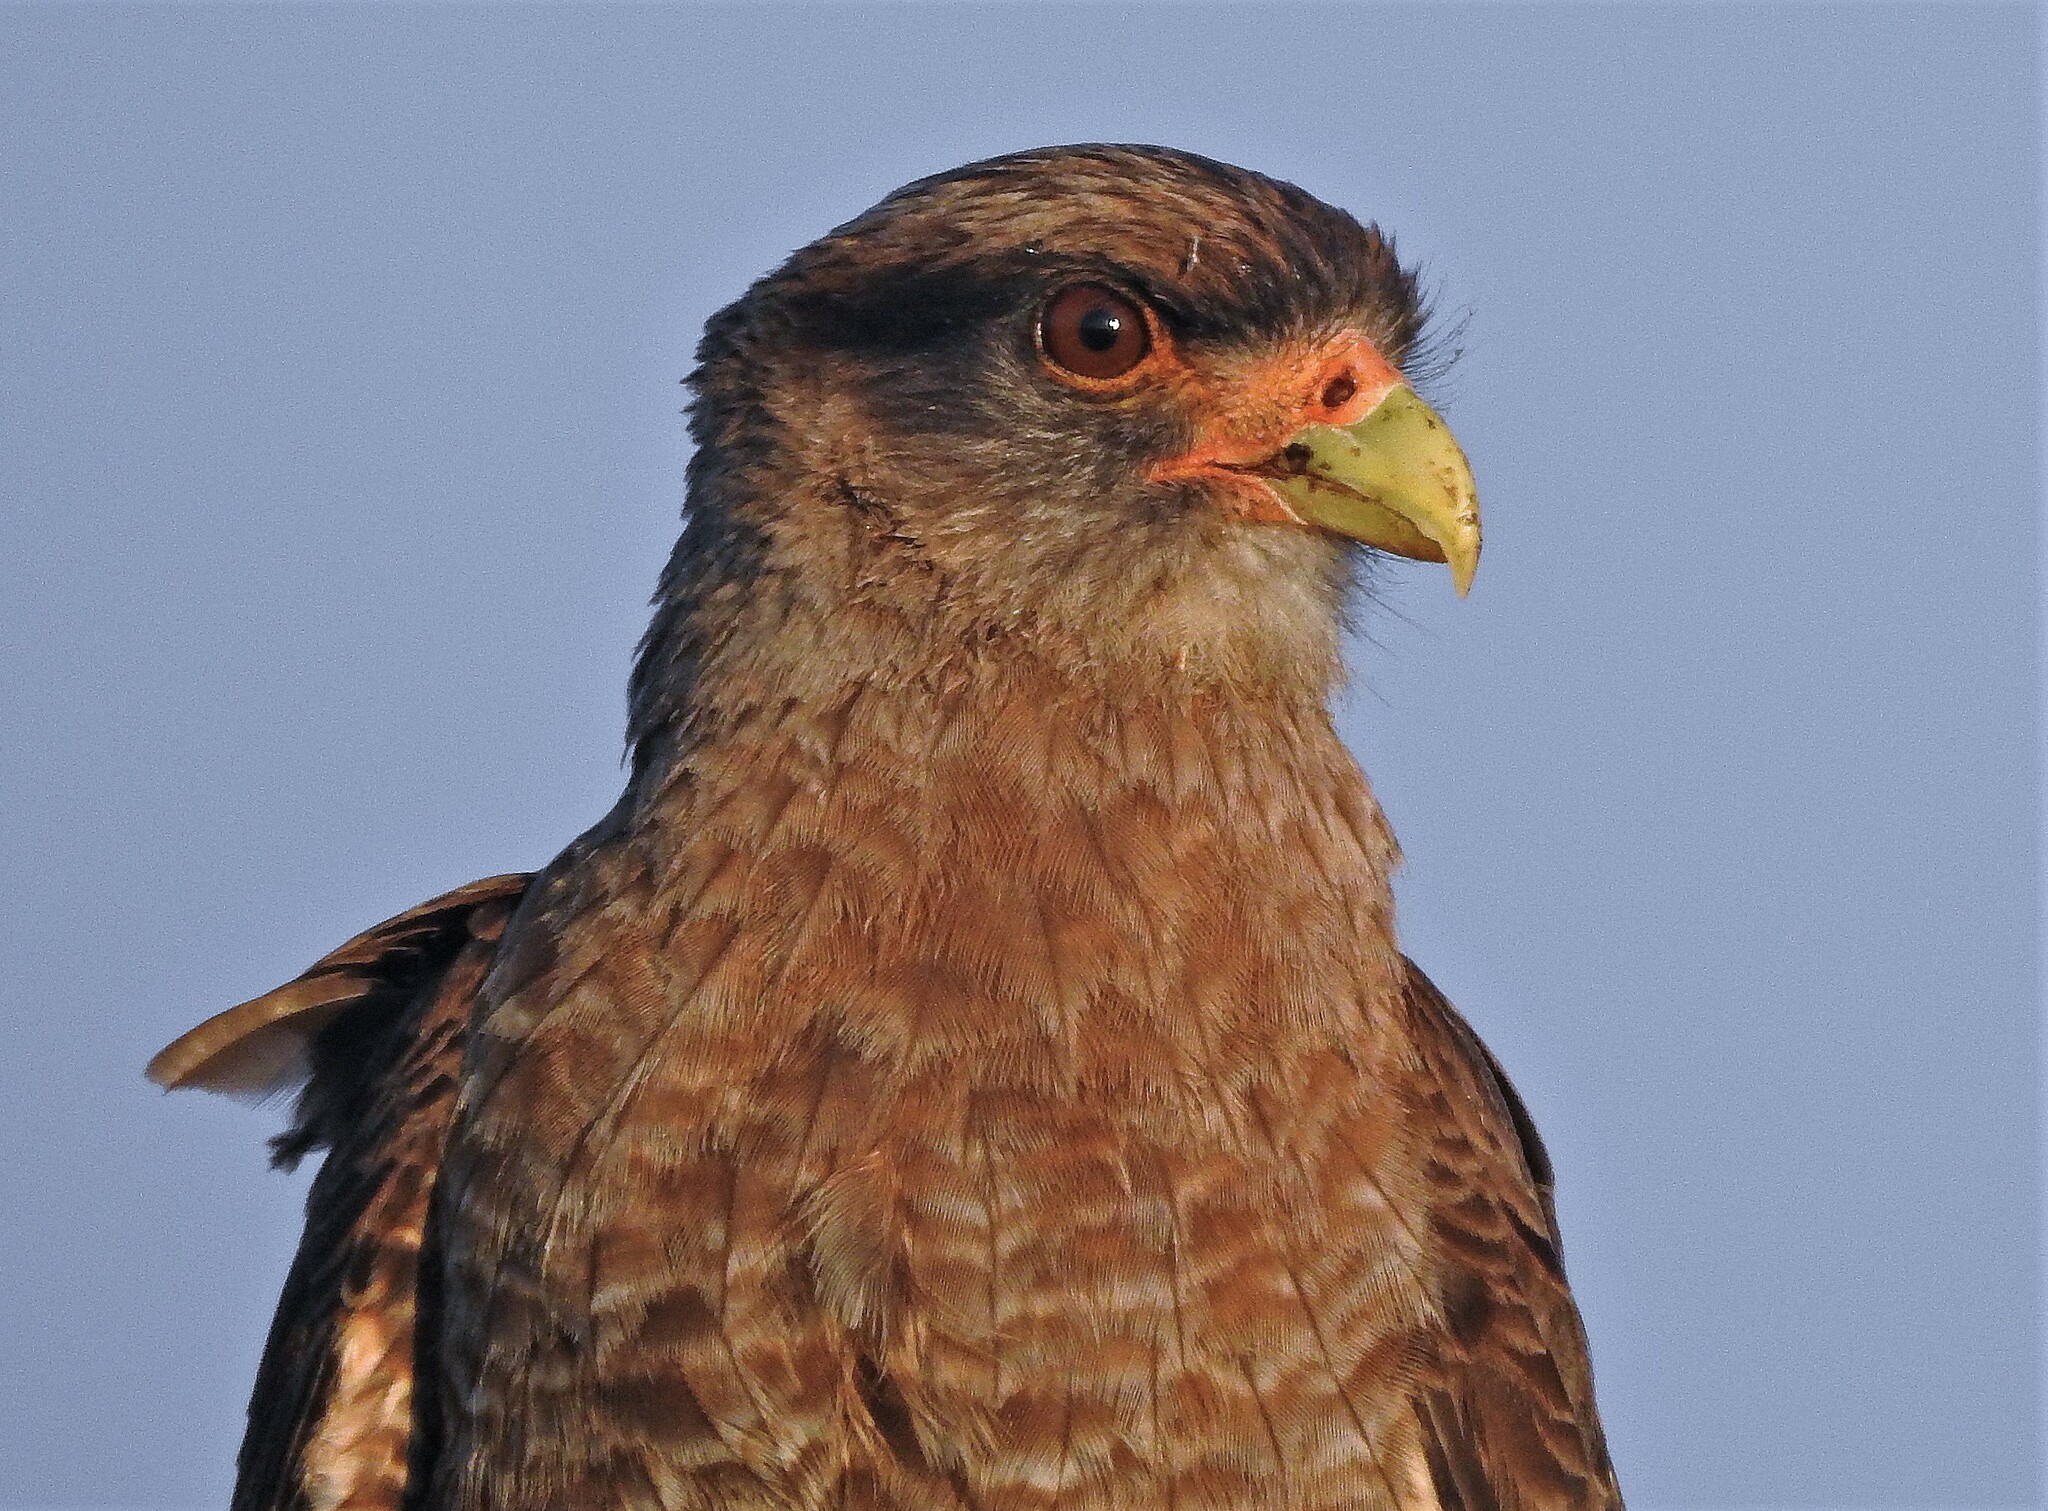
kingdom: Animalia
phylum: Chordata
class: Aves
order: Falconiformes
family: Falconidae
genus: Daptrius
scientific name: Daptrius
